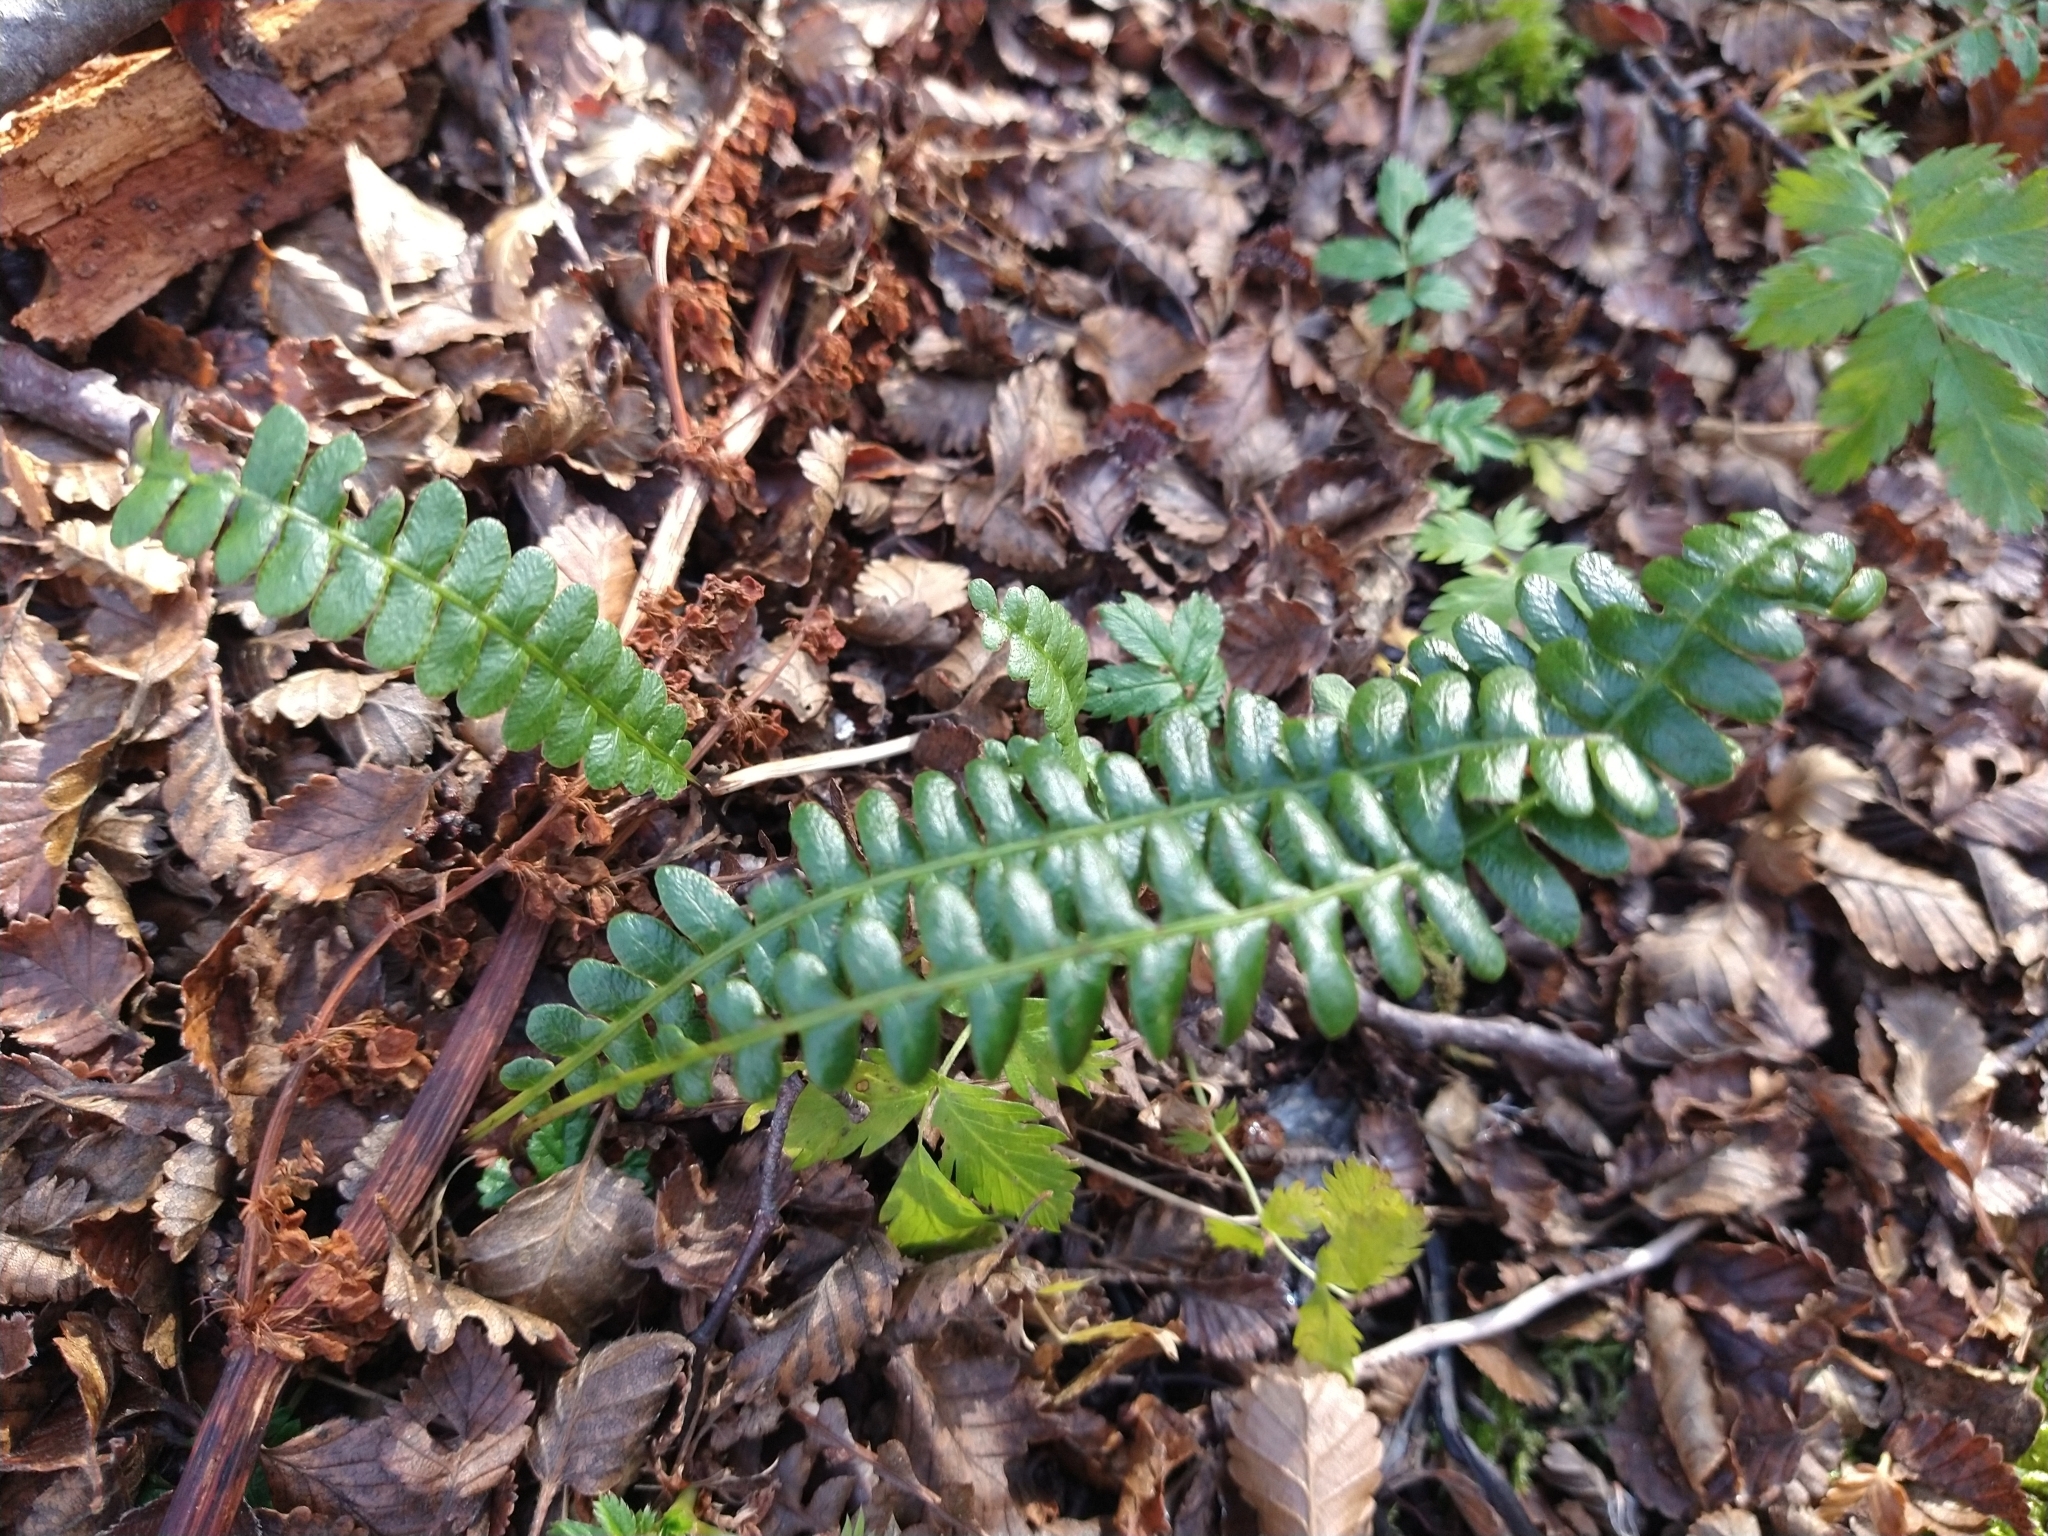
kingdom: Plantae
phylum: Tracheophyta
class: Polypodiopsida
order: Polypodiales
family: Blechnaceae
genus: Austroblechnum
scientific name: Austroblechnum penna-marina
